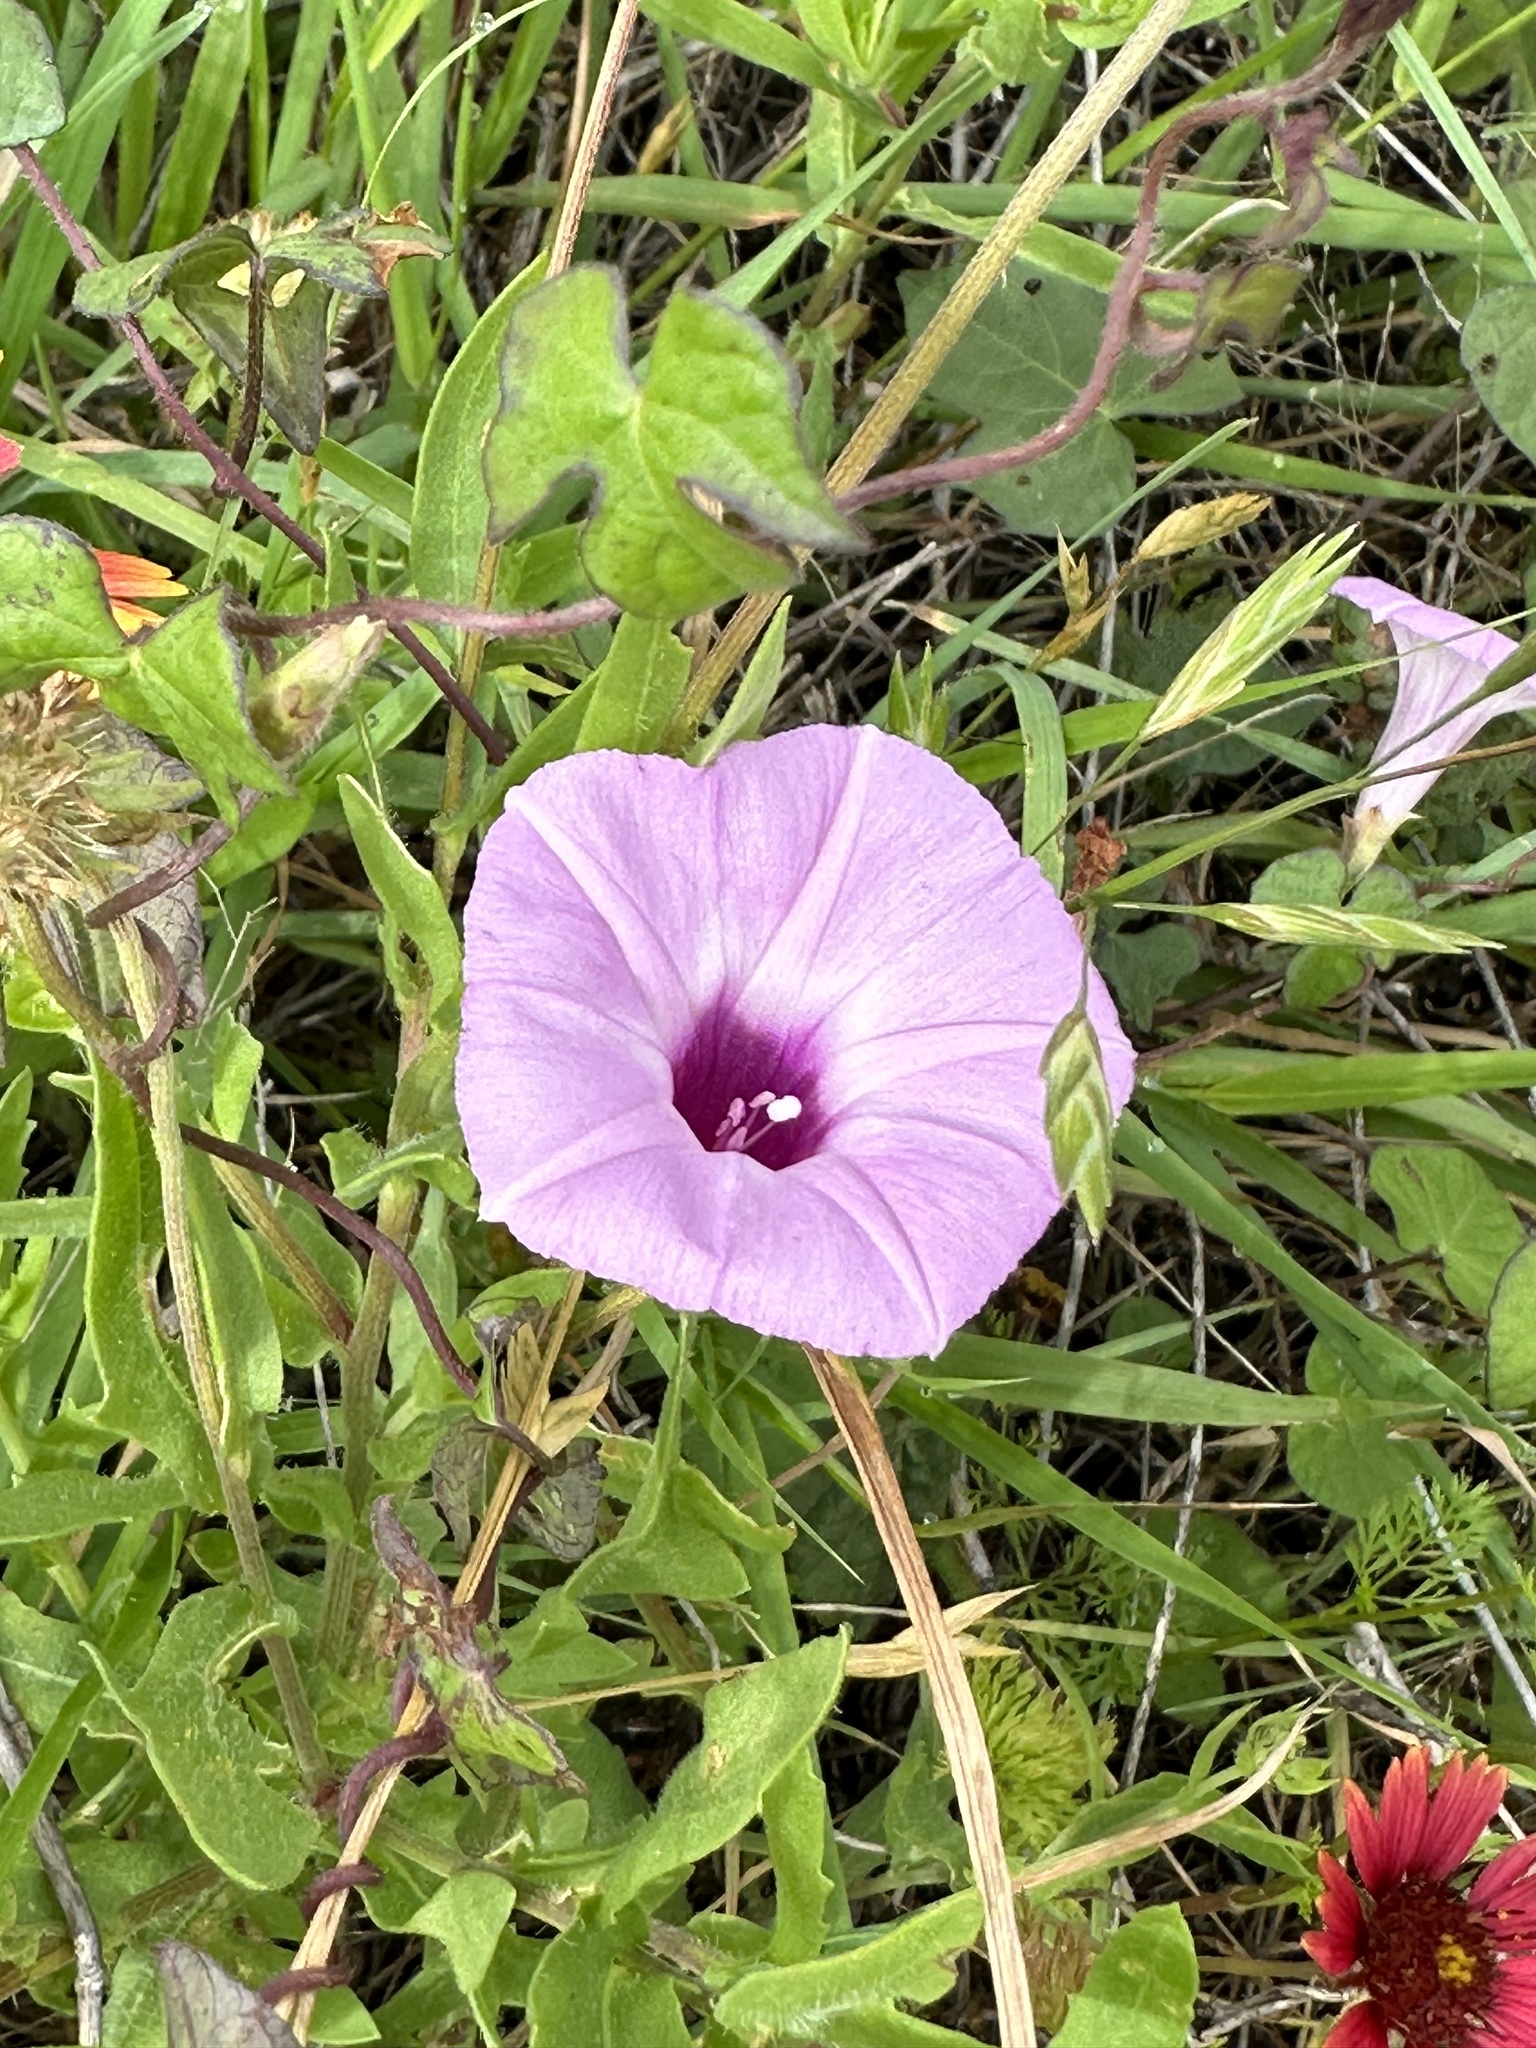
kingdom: Plantae
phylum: Tracheophyta
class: Magnoliopsida
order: Solanales
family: Convolvulaceae
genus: Ipomoea
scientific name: Ipomoea cordatotriloba
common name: Cotton morning glory
